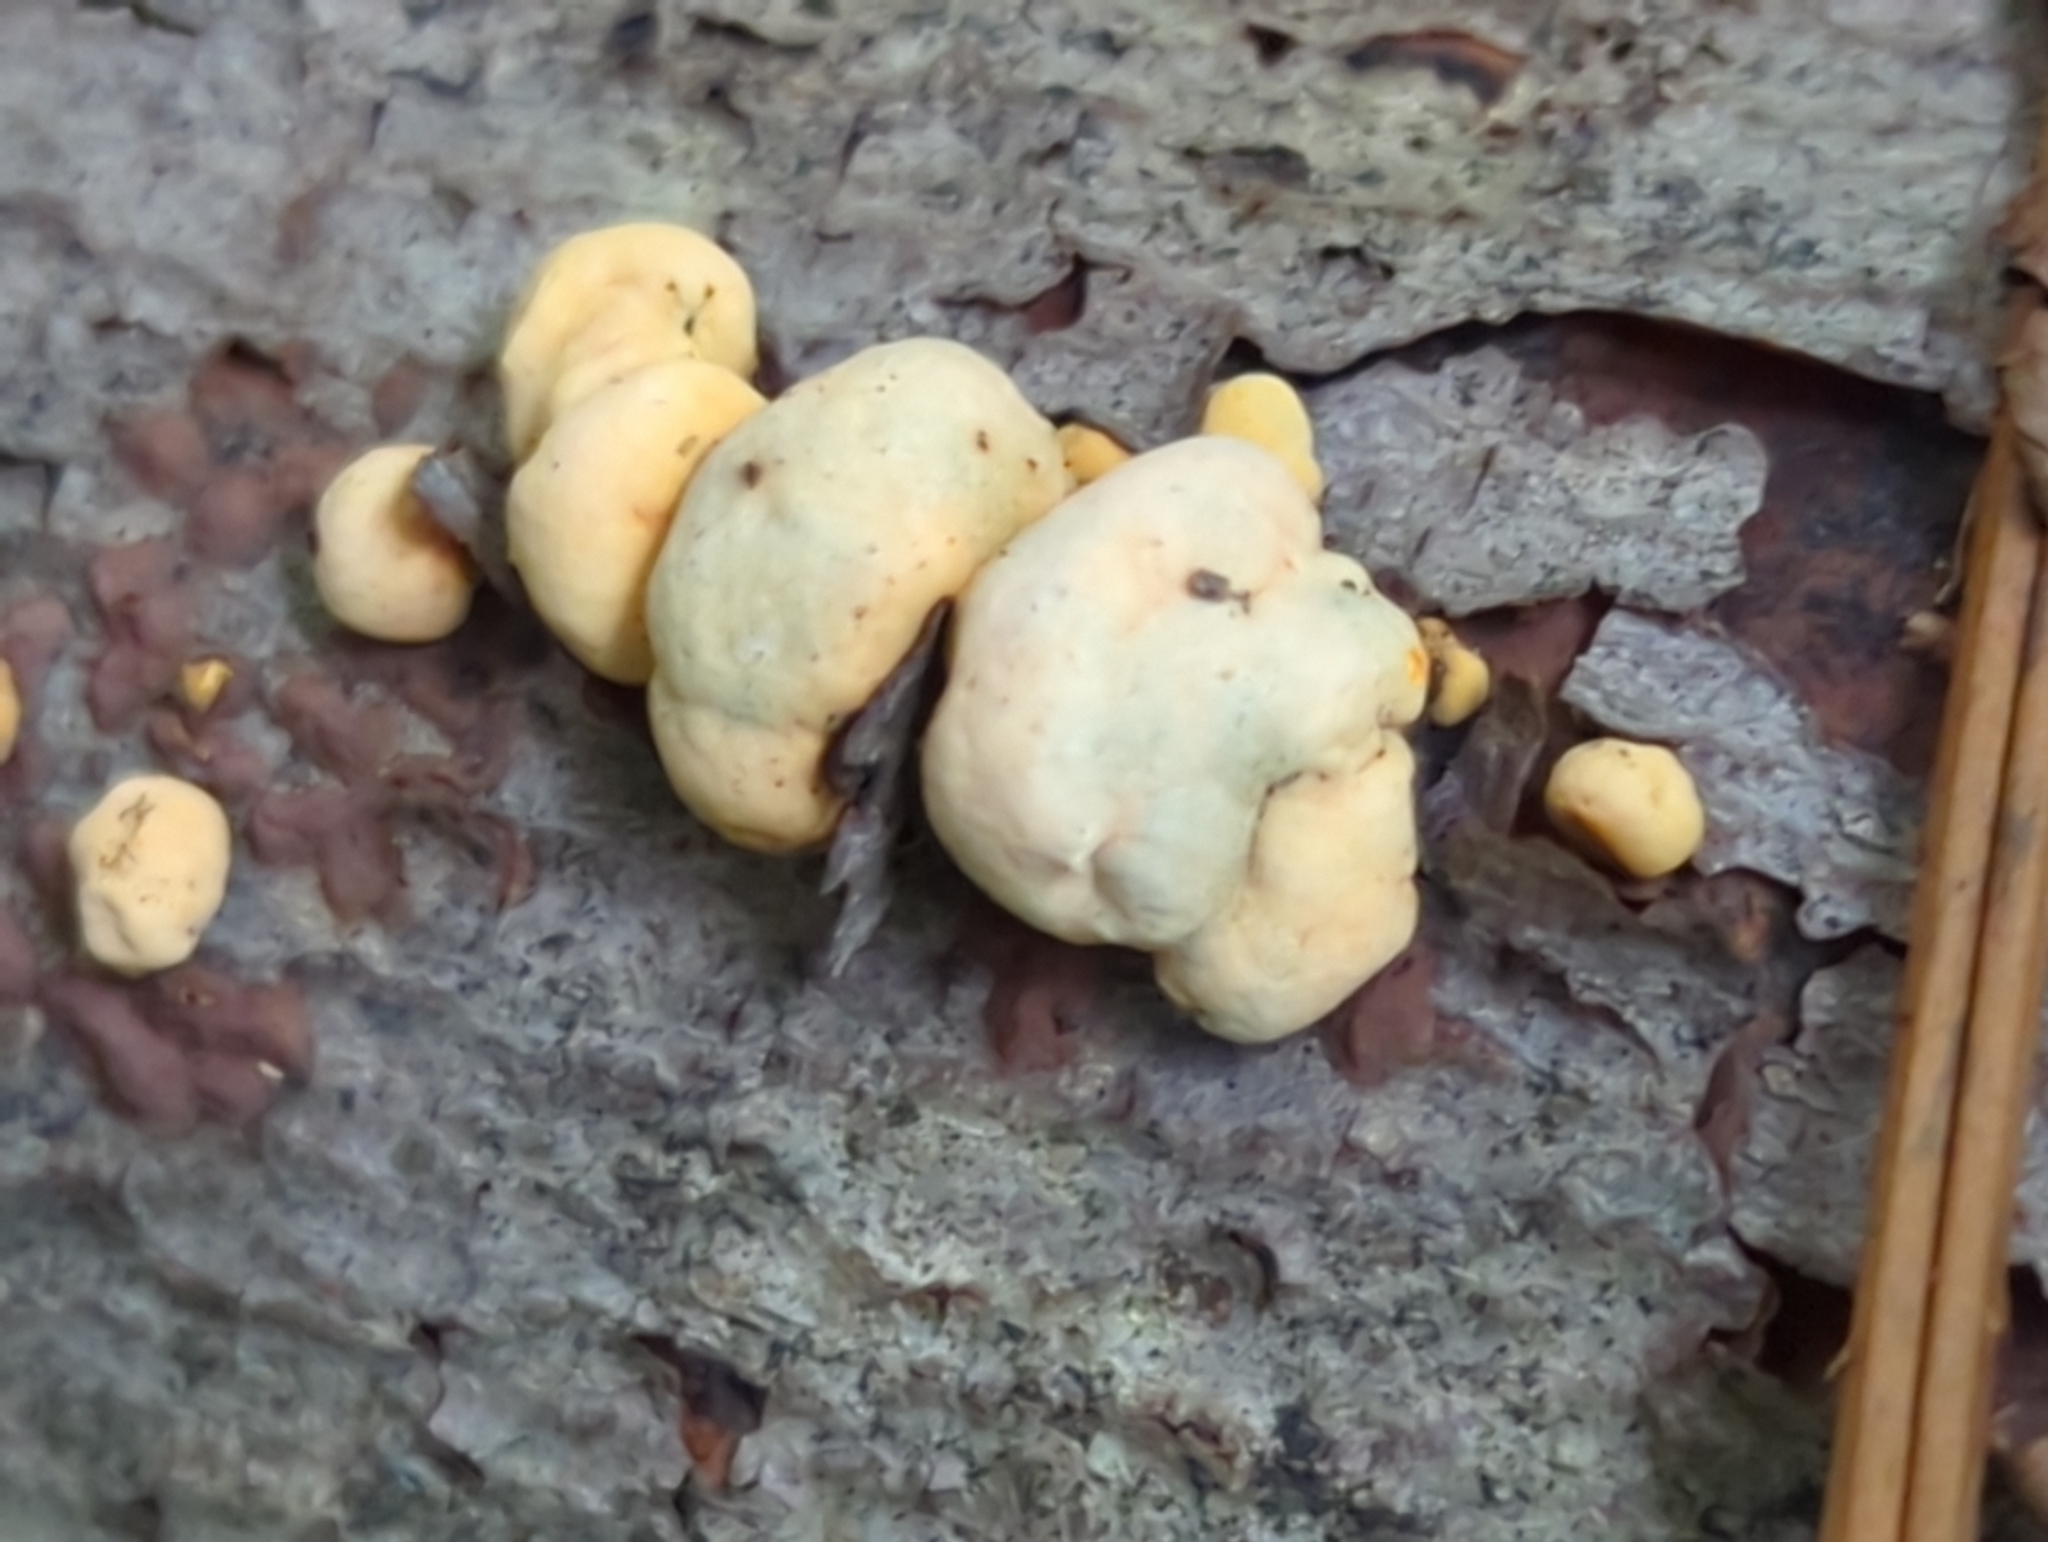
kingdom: Fungi
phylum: Ascomycota
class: Sordariomycetes
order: Xylariales
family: Hypoxylaceae
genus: Thuemenella
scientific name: Thuemenella cubispora
